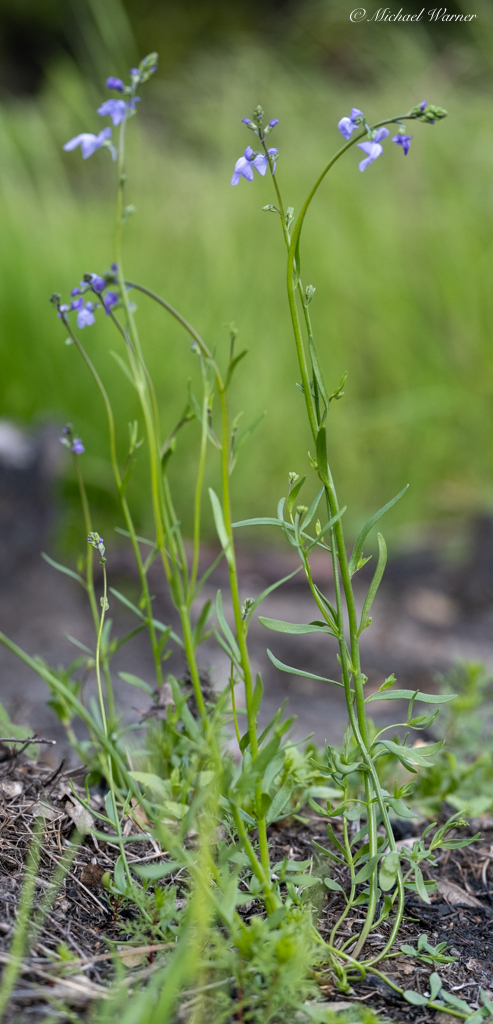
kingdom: Plantae
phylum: Tracheophyta
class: Magnoliopsida
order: Lamiales
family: Plantaginaceae
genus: Nuttallanthus
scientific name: Nuttallanthus texanus
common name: Texas toadflax
